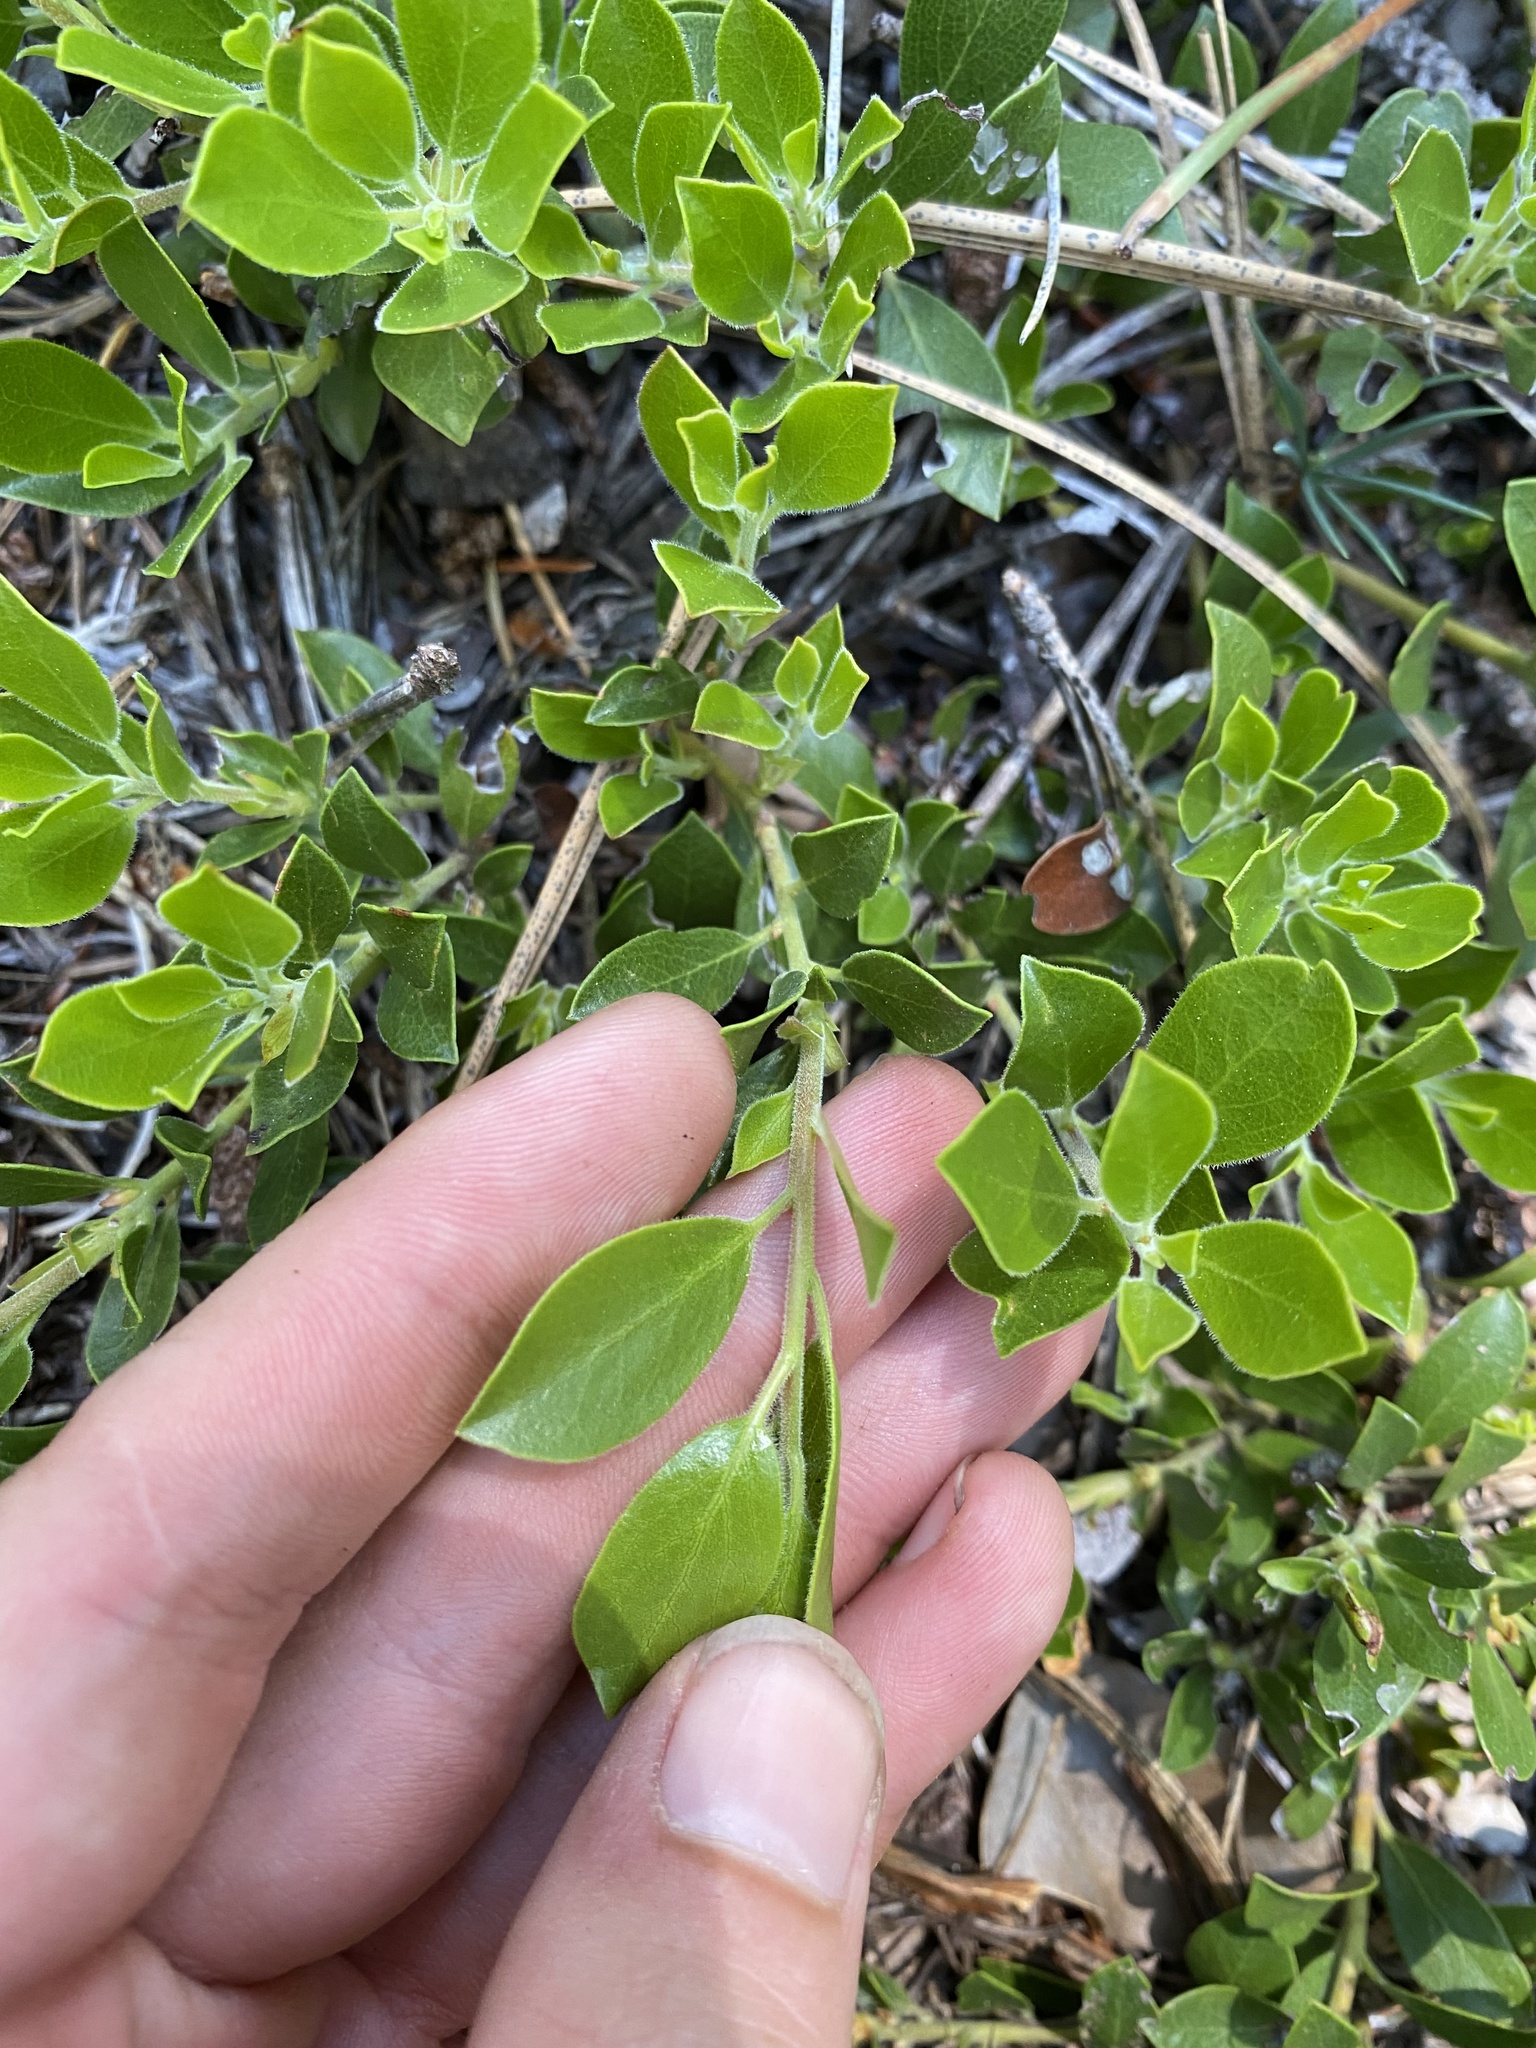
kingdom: Plantae
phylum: Tracheophyta
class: Magnoliopsida
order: Ericales
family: Ericaceae
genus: Arctostaphylos
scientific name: Arctostaphylos nevadensis
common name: Pinemat manzanita
